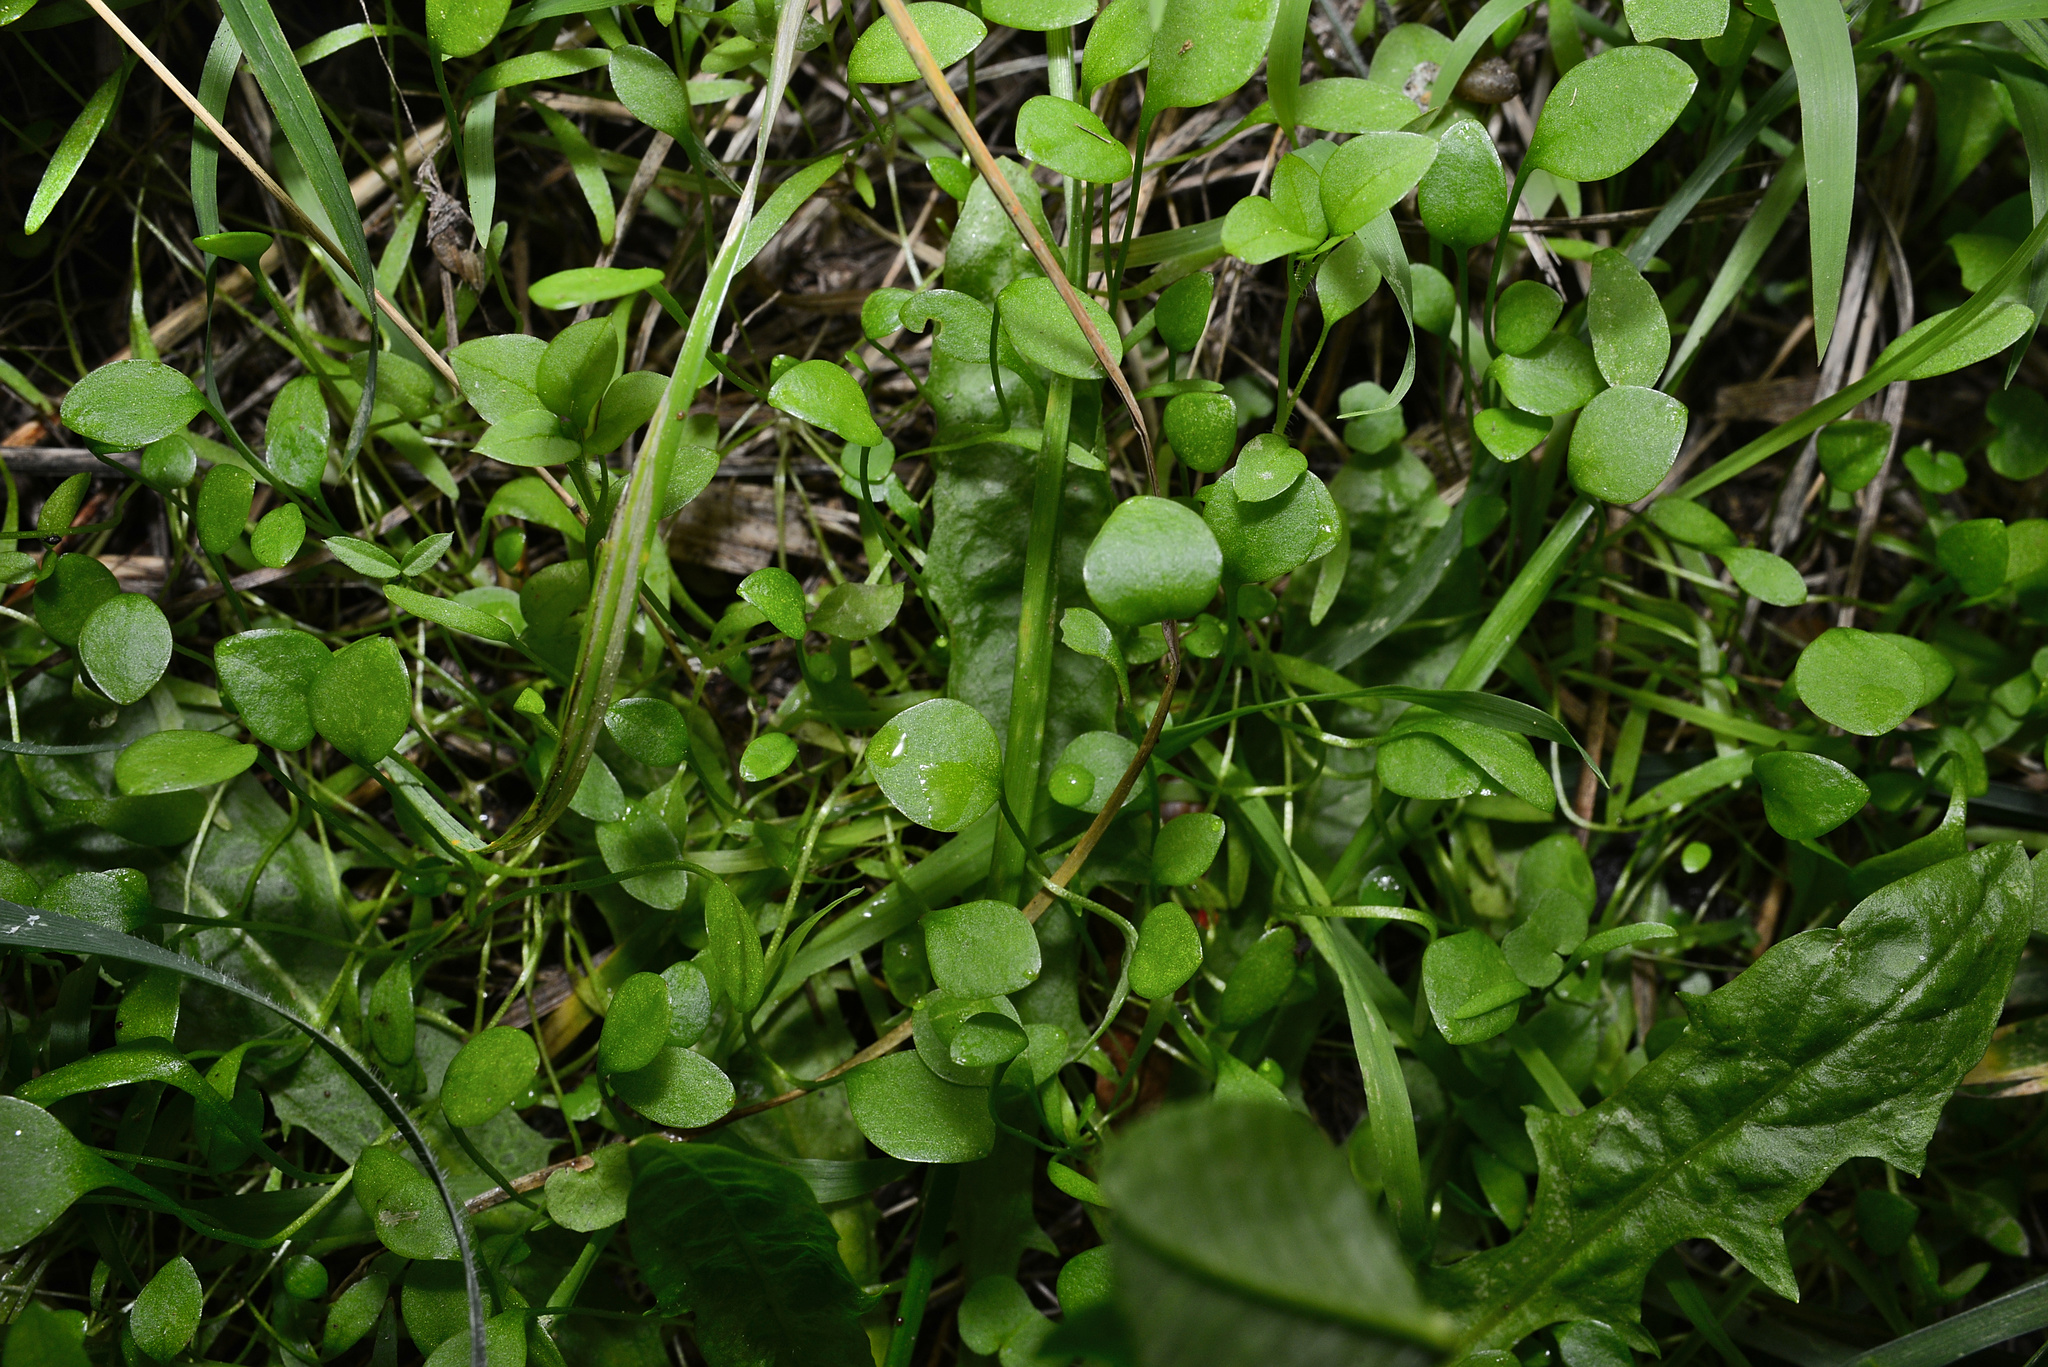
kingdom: Plantae
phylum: Tracheophyta
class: Magnoliopsida
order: Caryophyllales
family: Caryophyllaceae
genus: Stellaria
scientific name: Stellaria media
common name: Common chickweed
